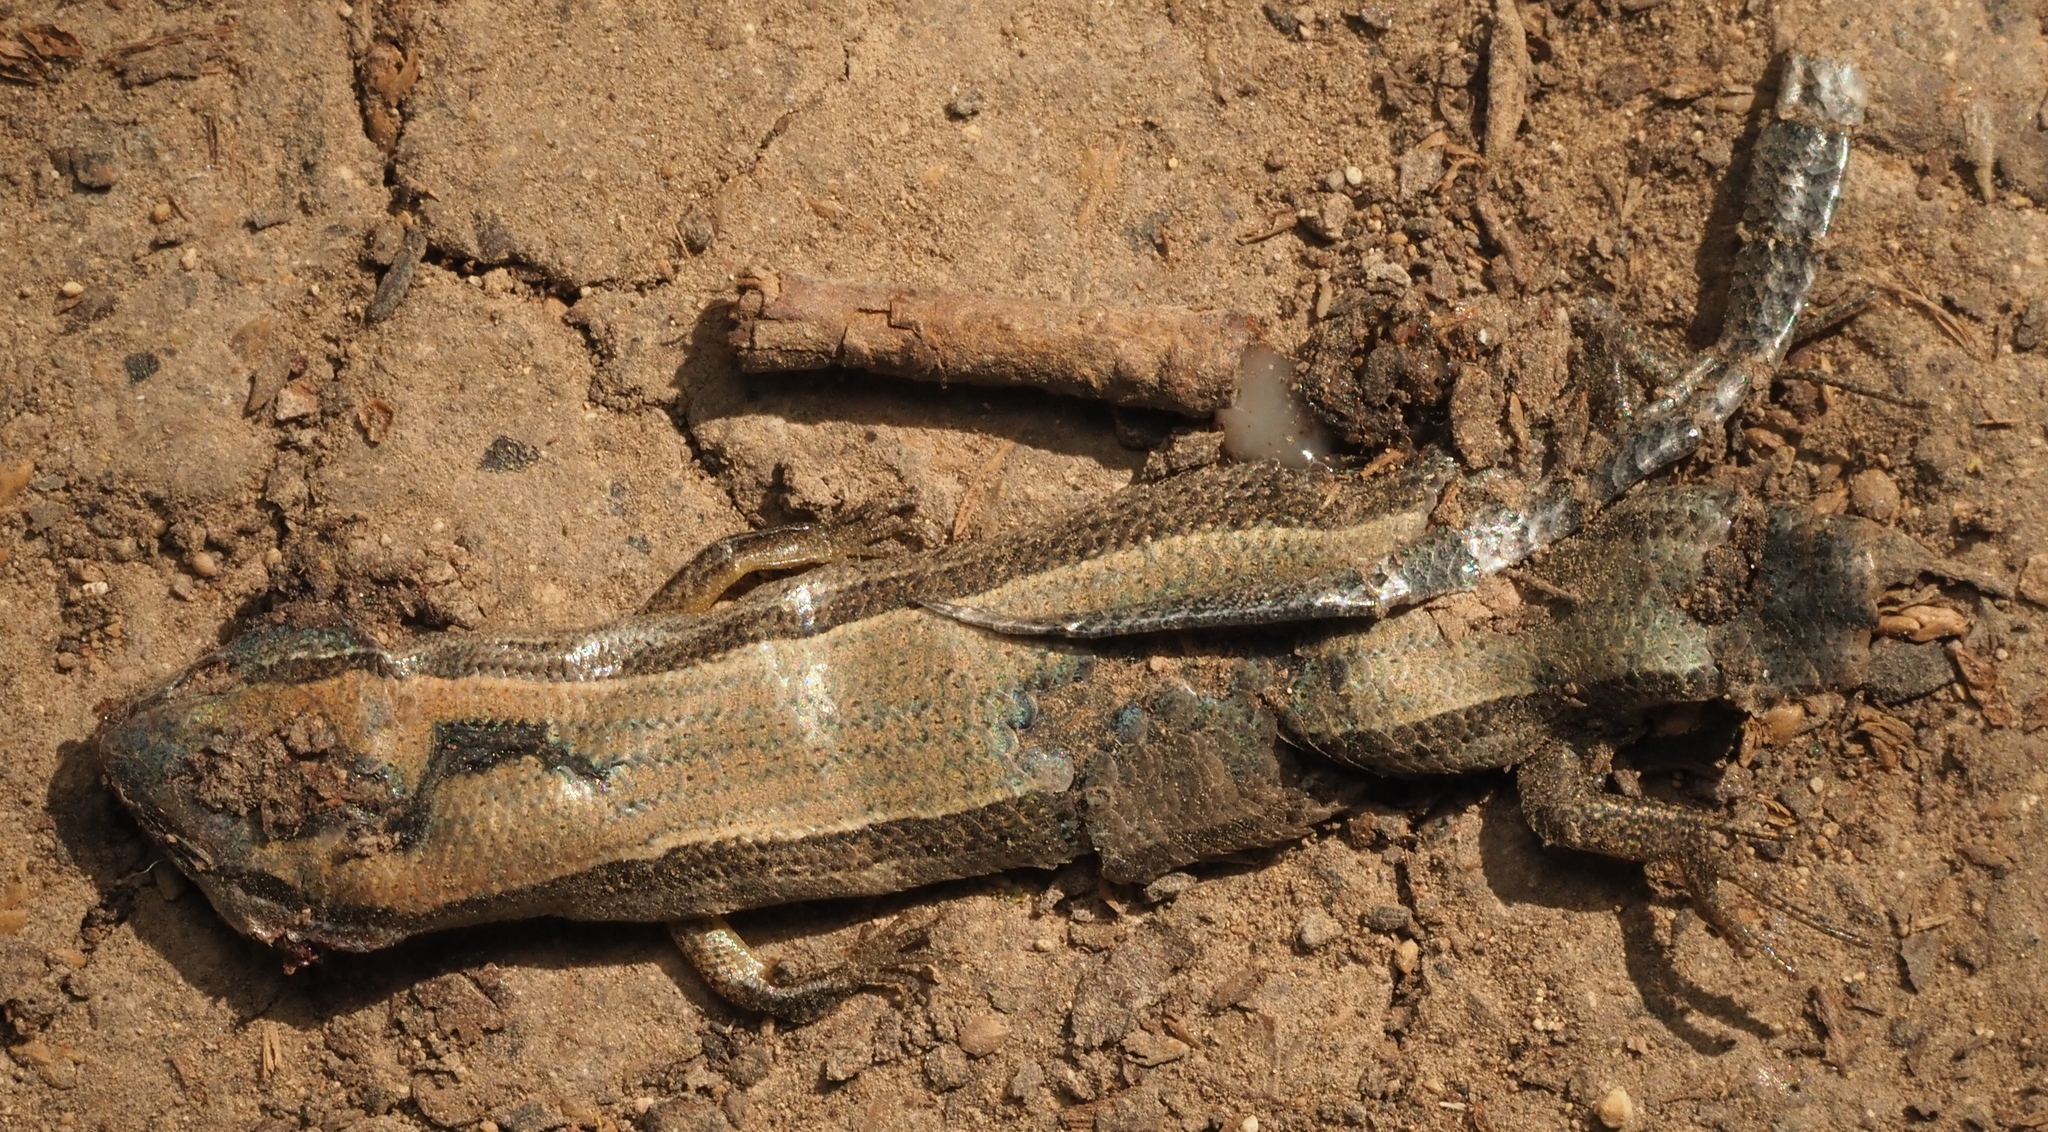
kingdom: Animalia
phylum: Chordata
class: Squamata
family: Scincidae
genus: Scincella
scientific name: Scincella lateralis
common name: Ground skink
